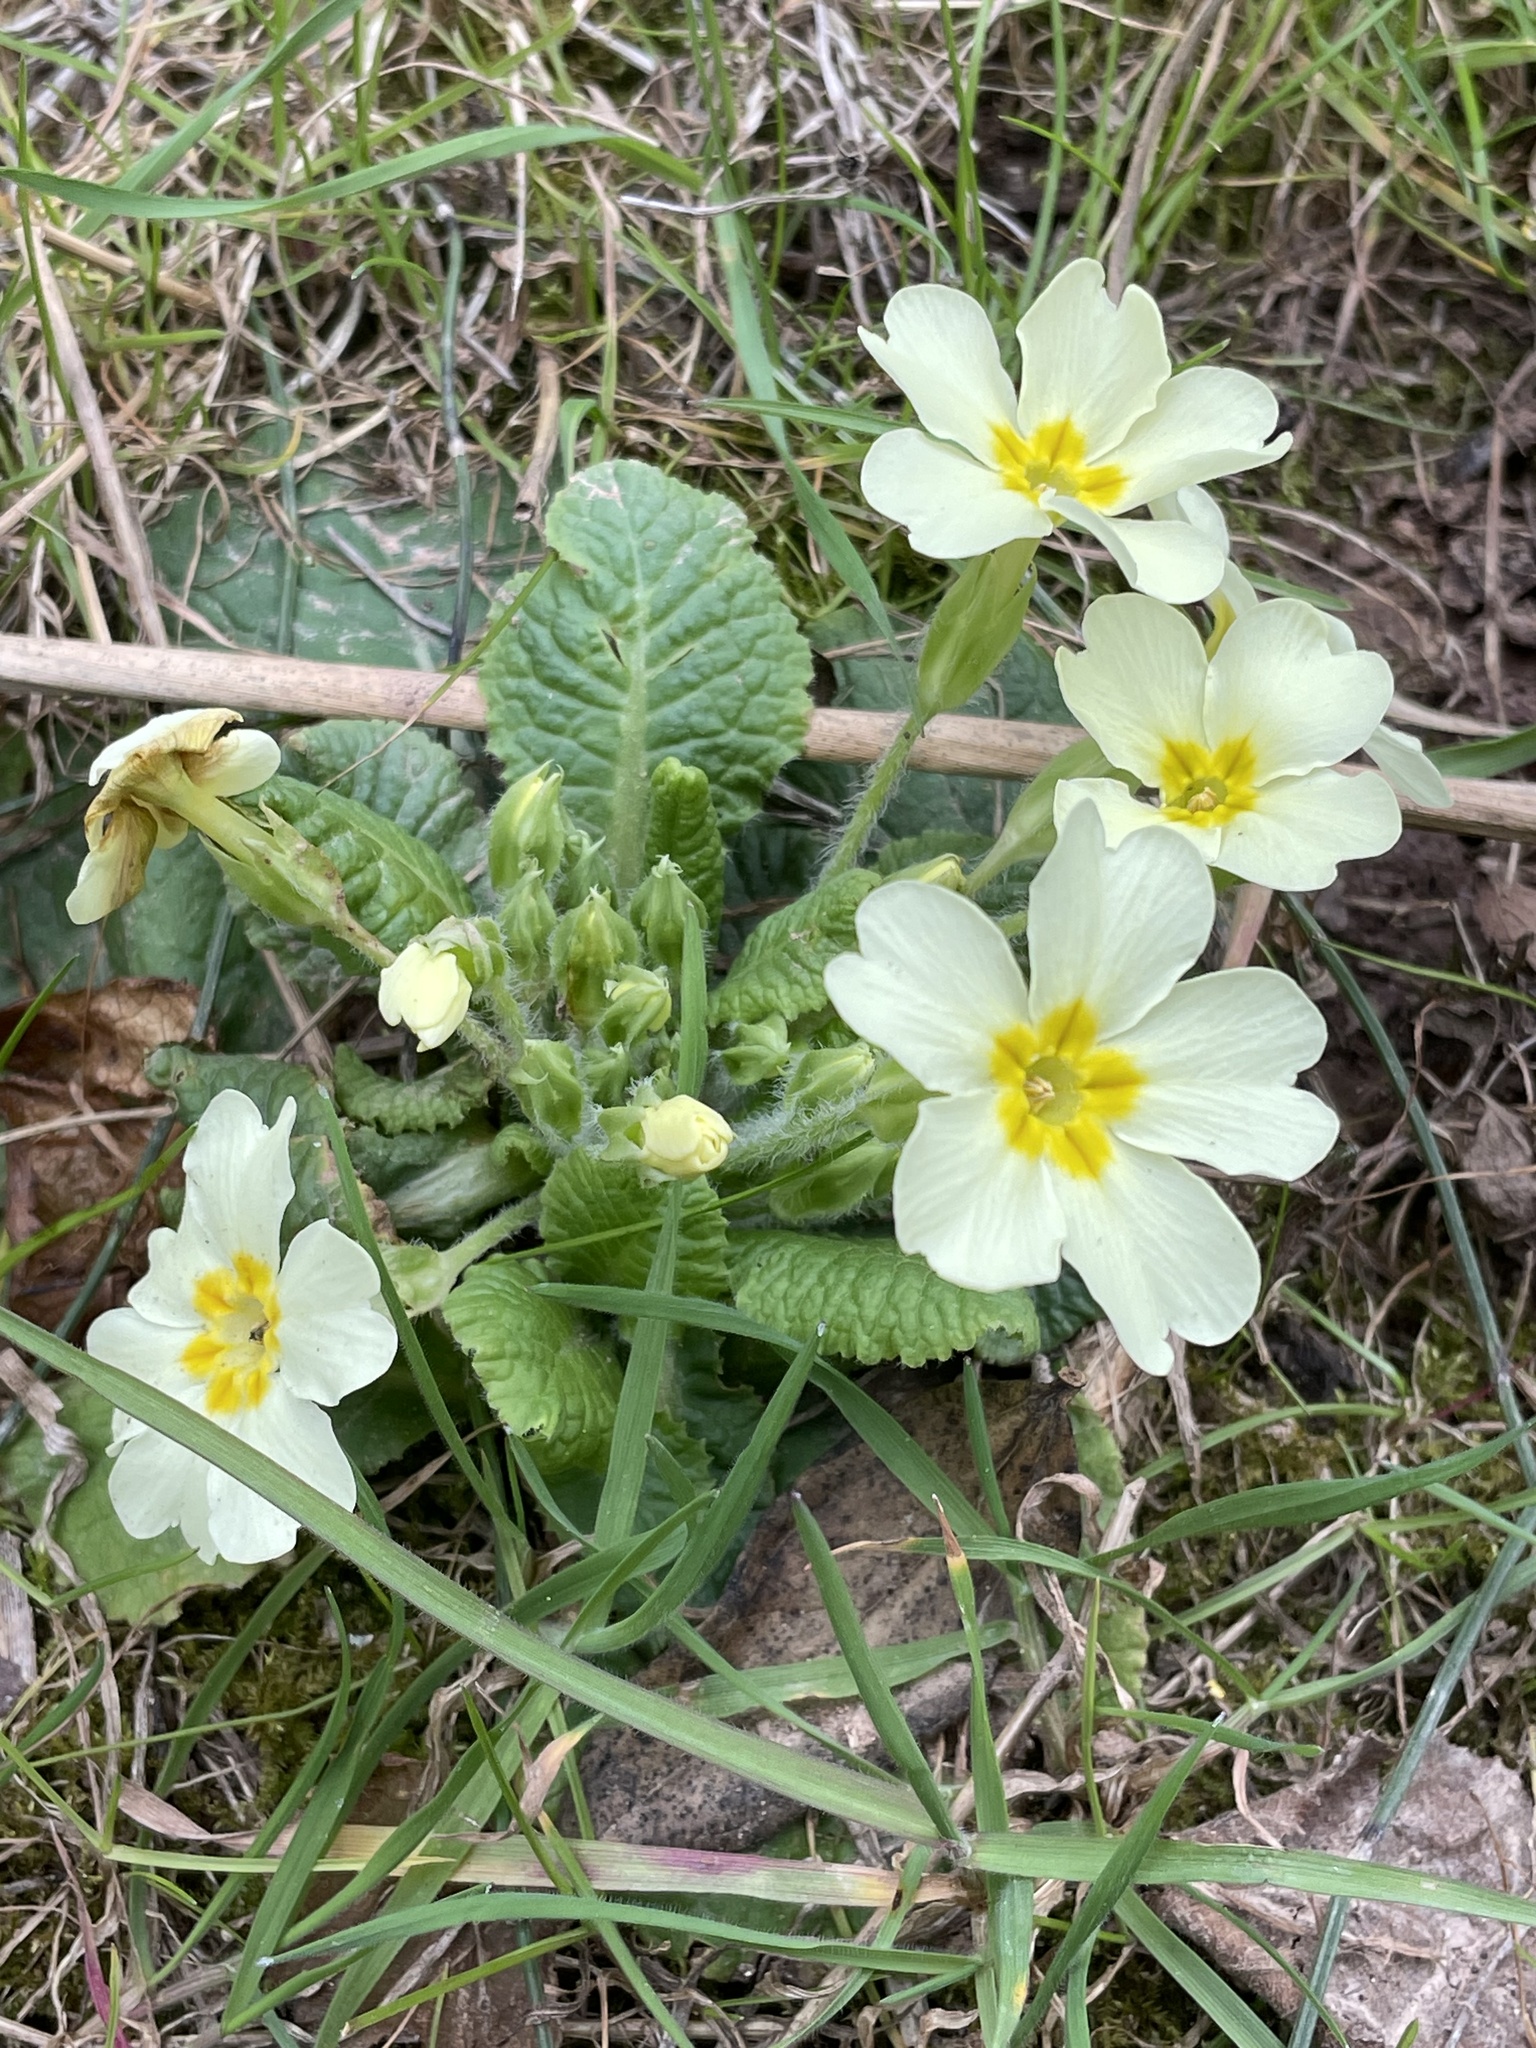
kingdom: Plantae
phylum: Tracheophyta
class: Magnoliopsida
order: Ericales
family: Primulaceae
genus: Primula
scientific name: Primula vulgaris
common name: Primrose
